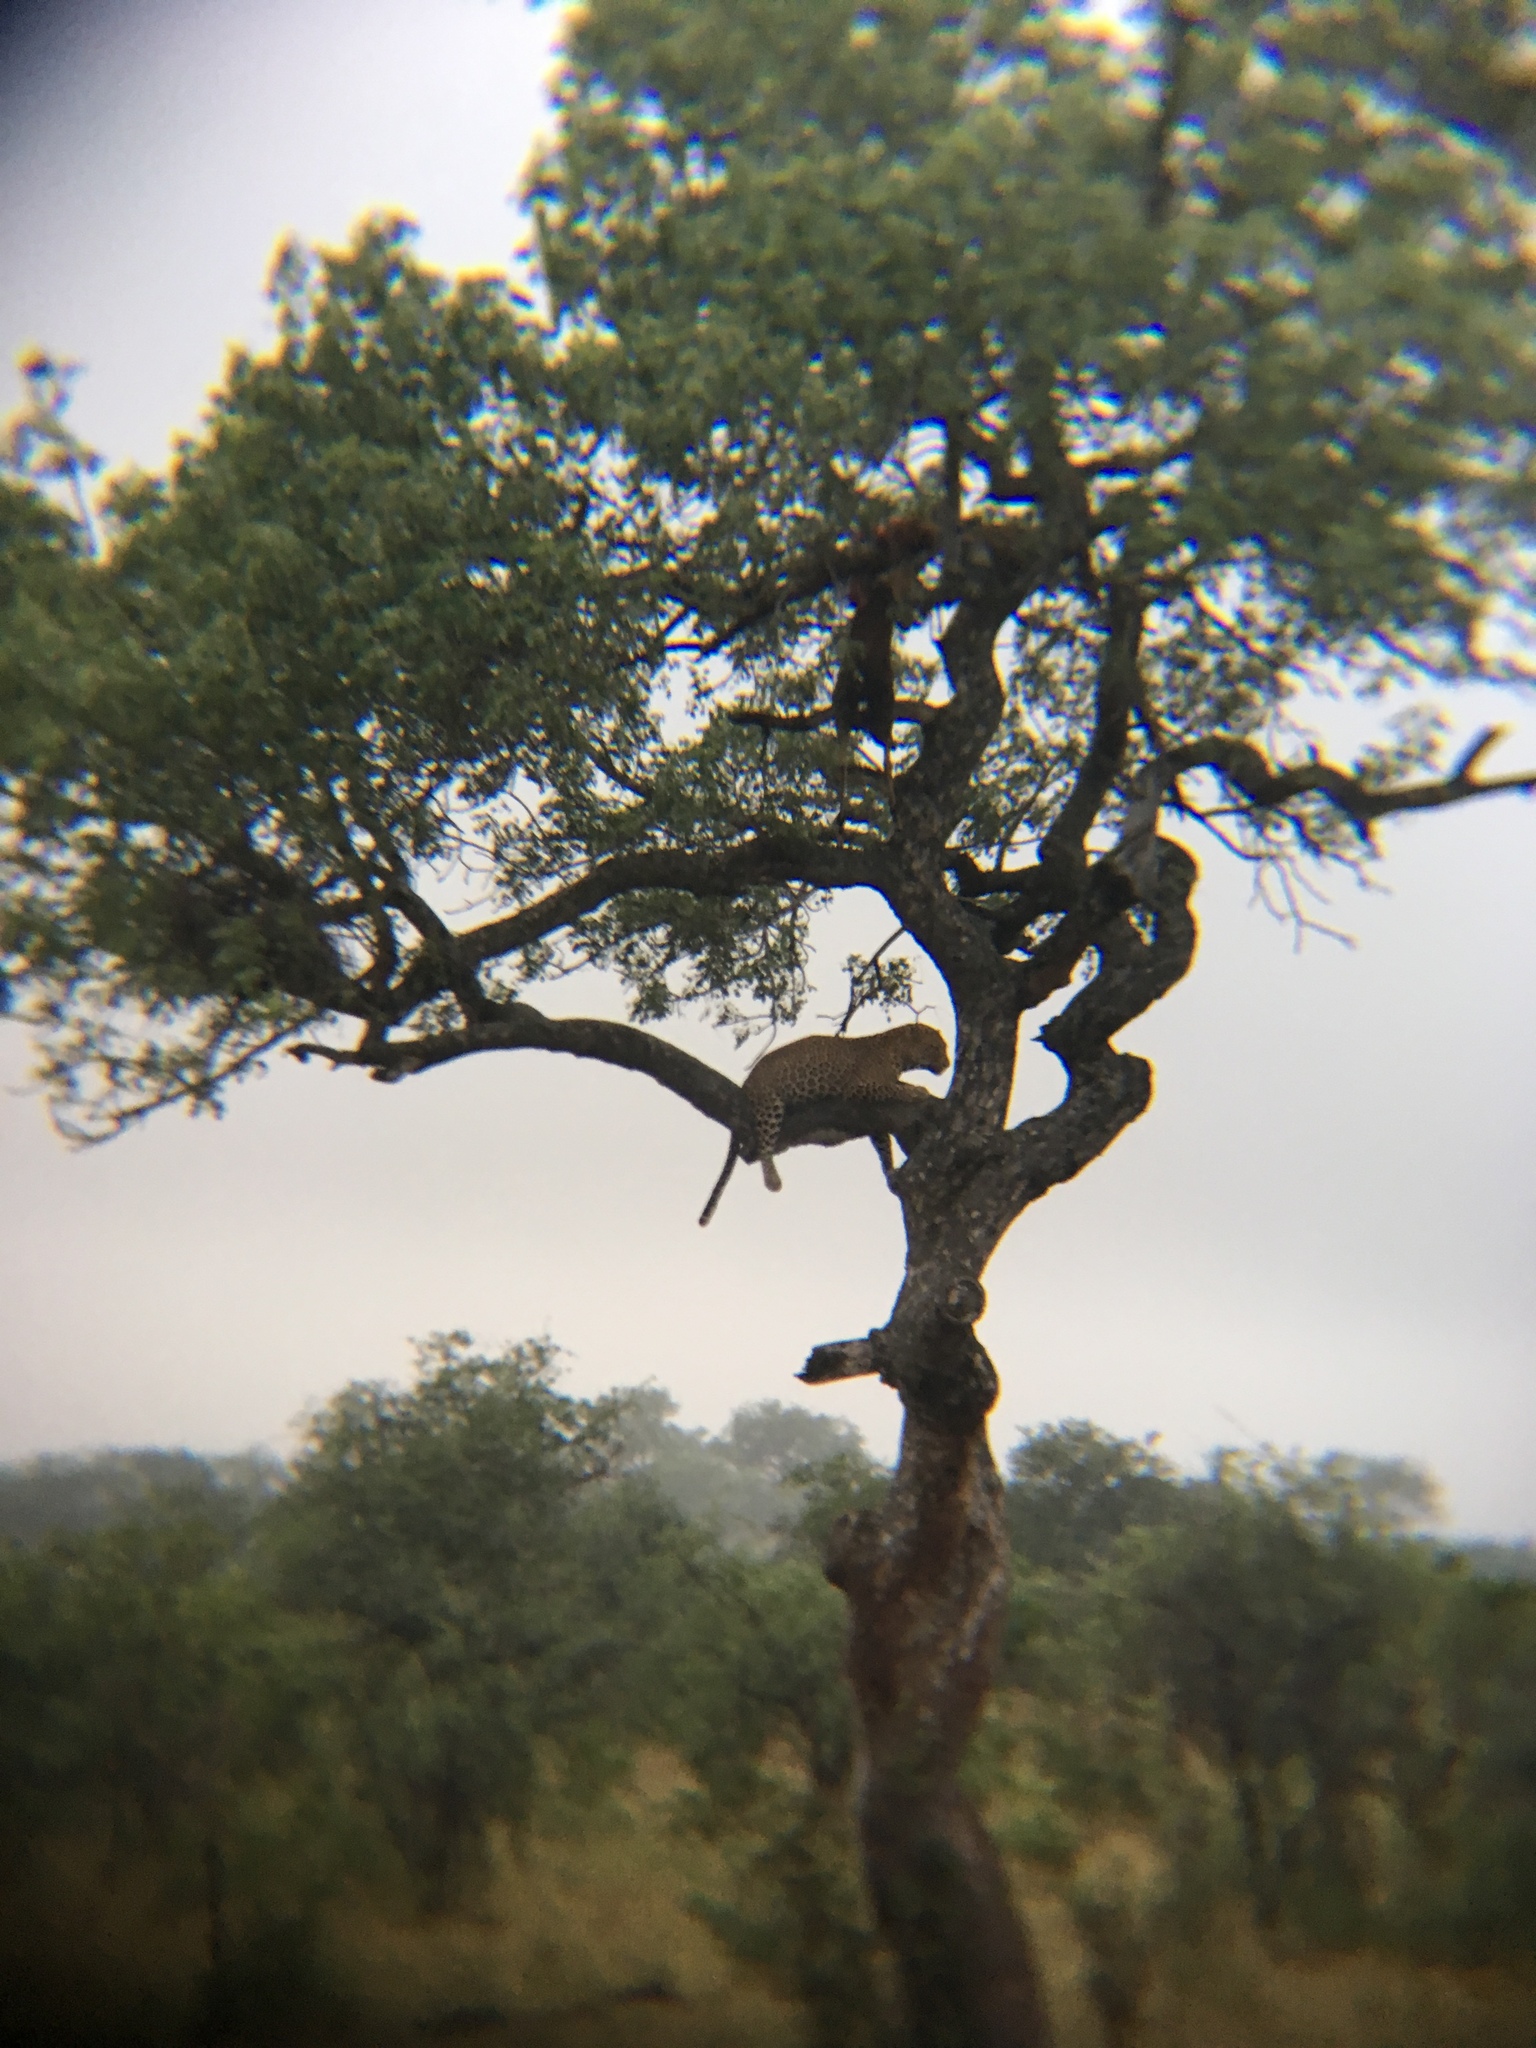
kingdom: Animalia
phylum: Chordata
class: Mammalia
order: Carnivora
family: Felidae
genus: Panthera
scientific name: Panthera pardus
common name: Leopard
